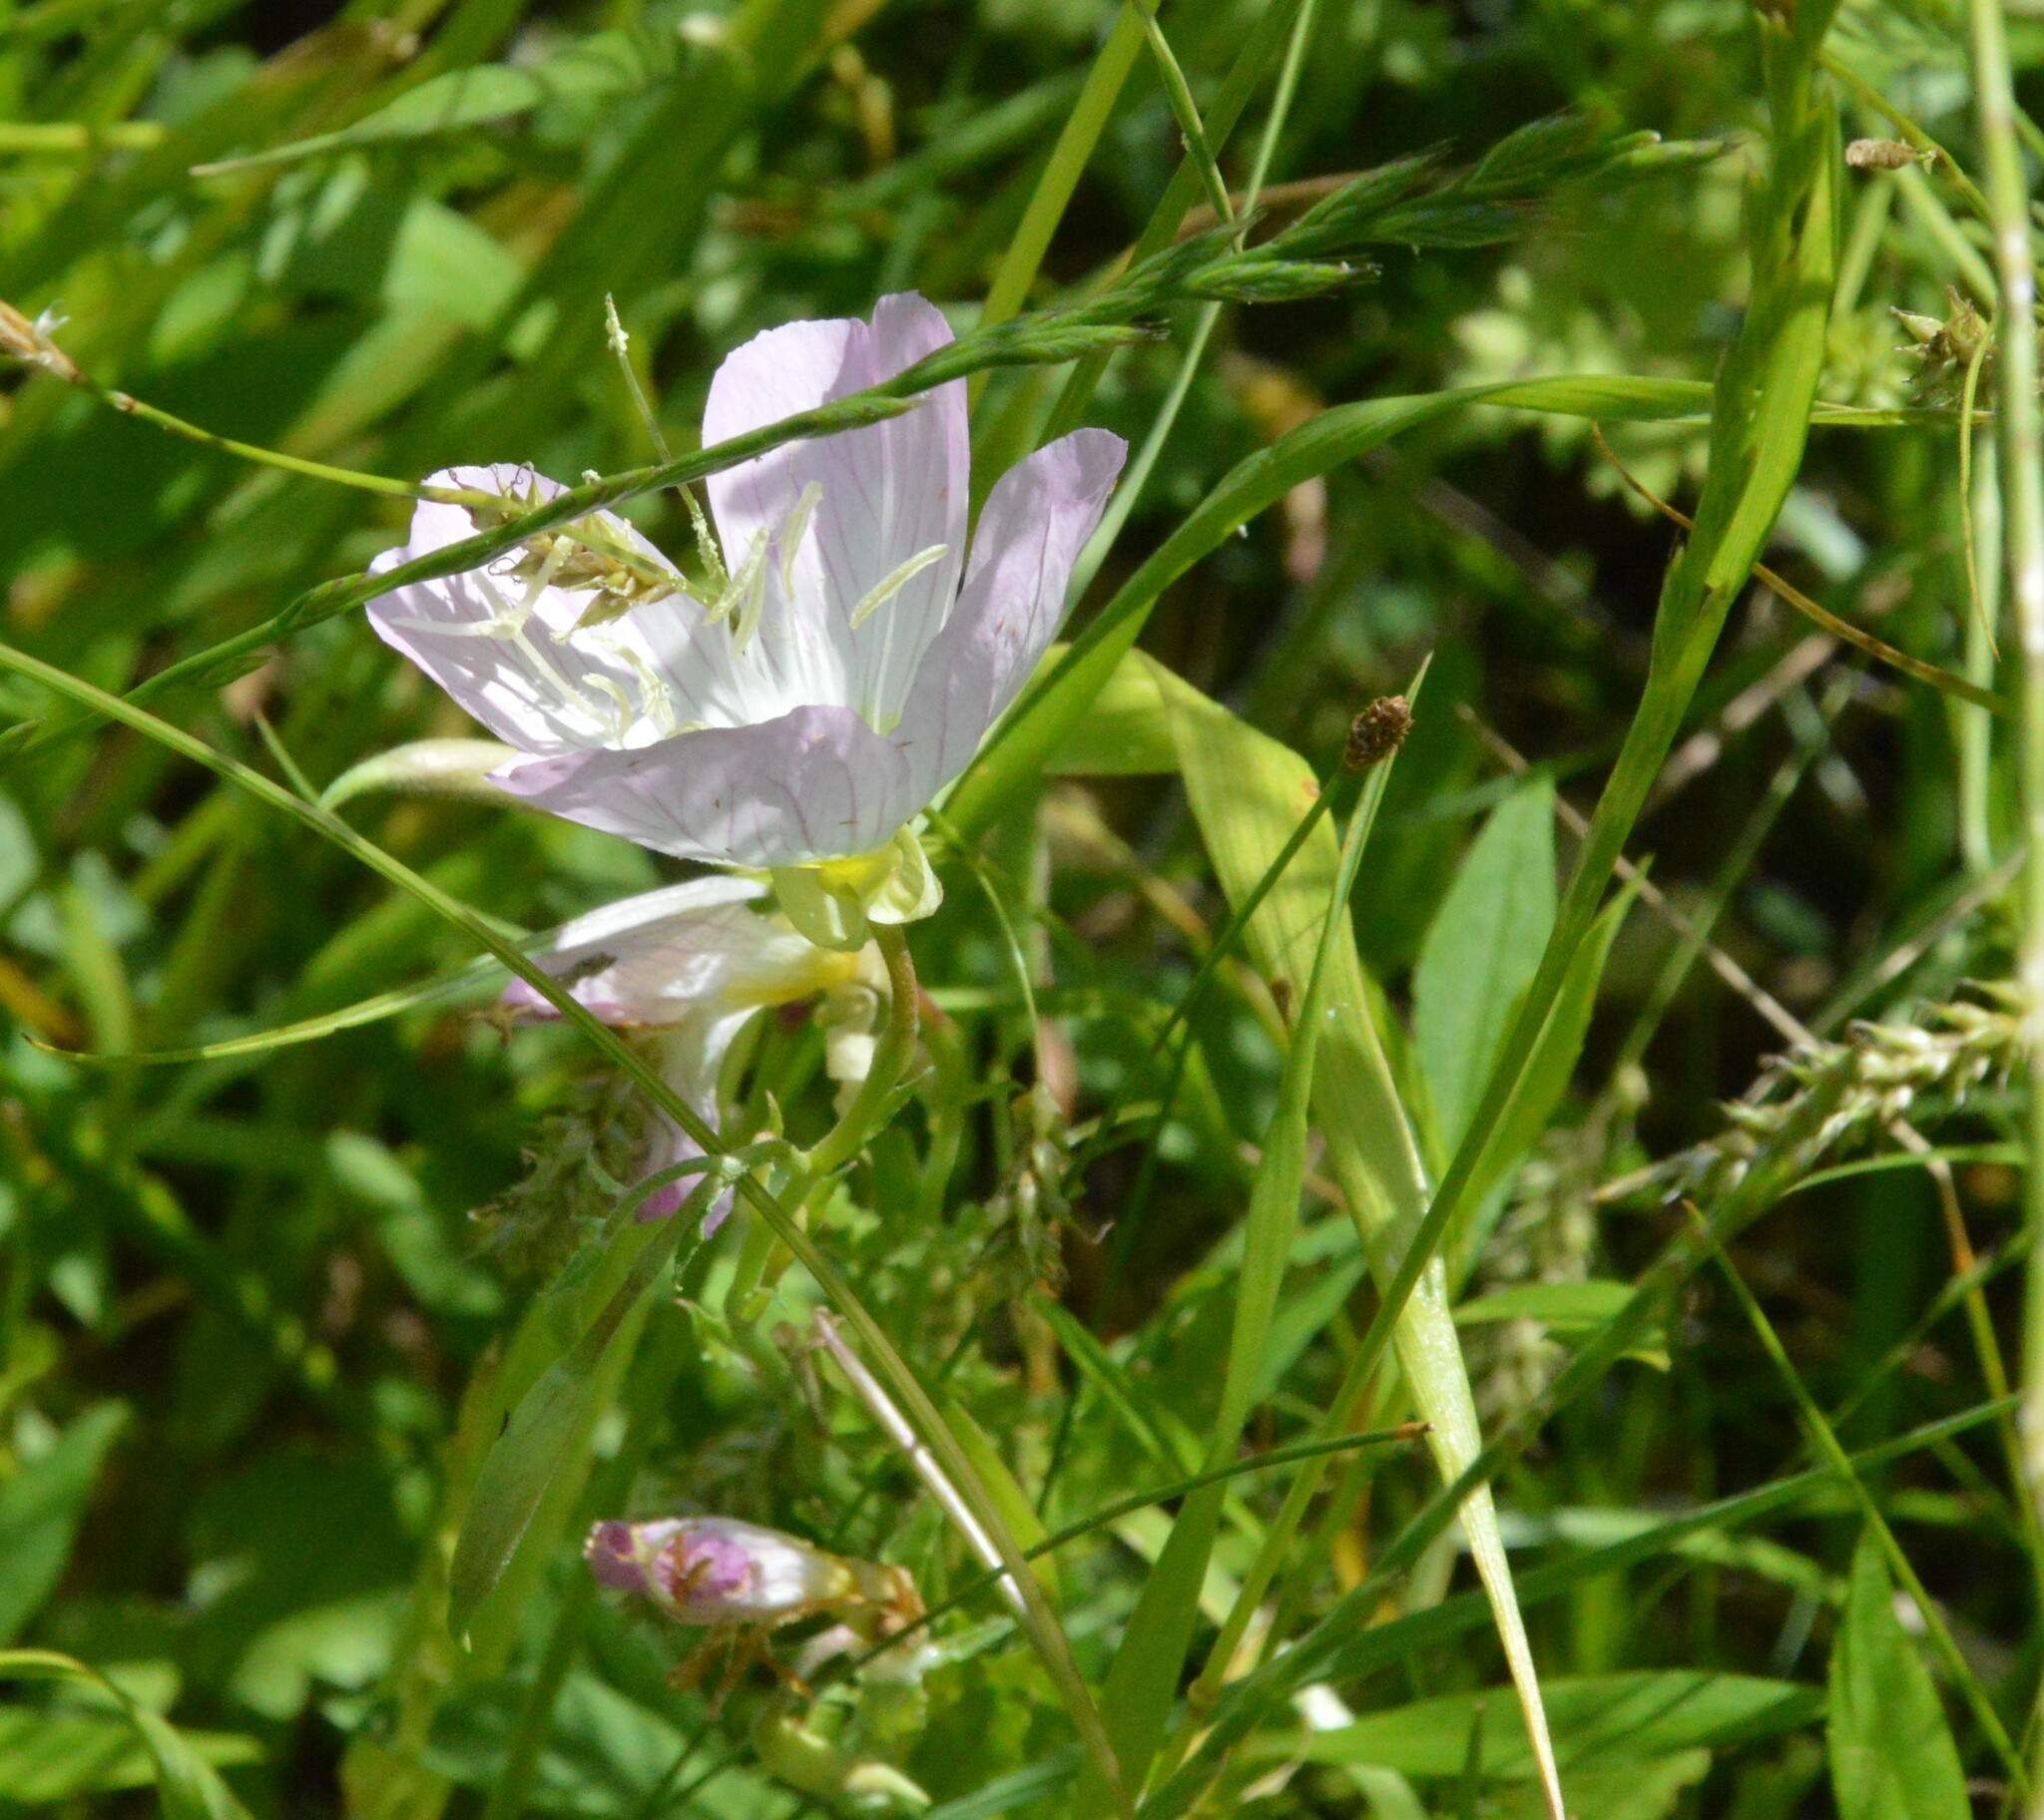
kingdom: Plantae
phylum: Tracheophyta
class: Magnoliopsida
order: Myrtales
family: Onagraceae
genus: Oenothera
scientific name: Oenothera speciosa
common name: White evening-primrose
